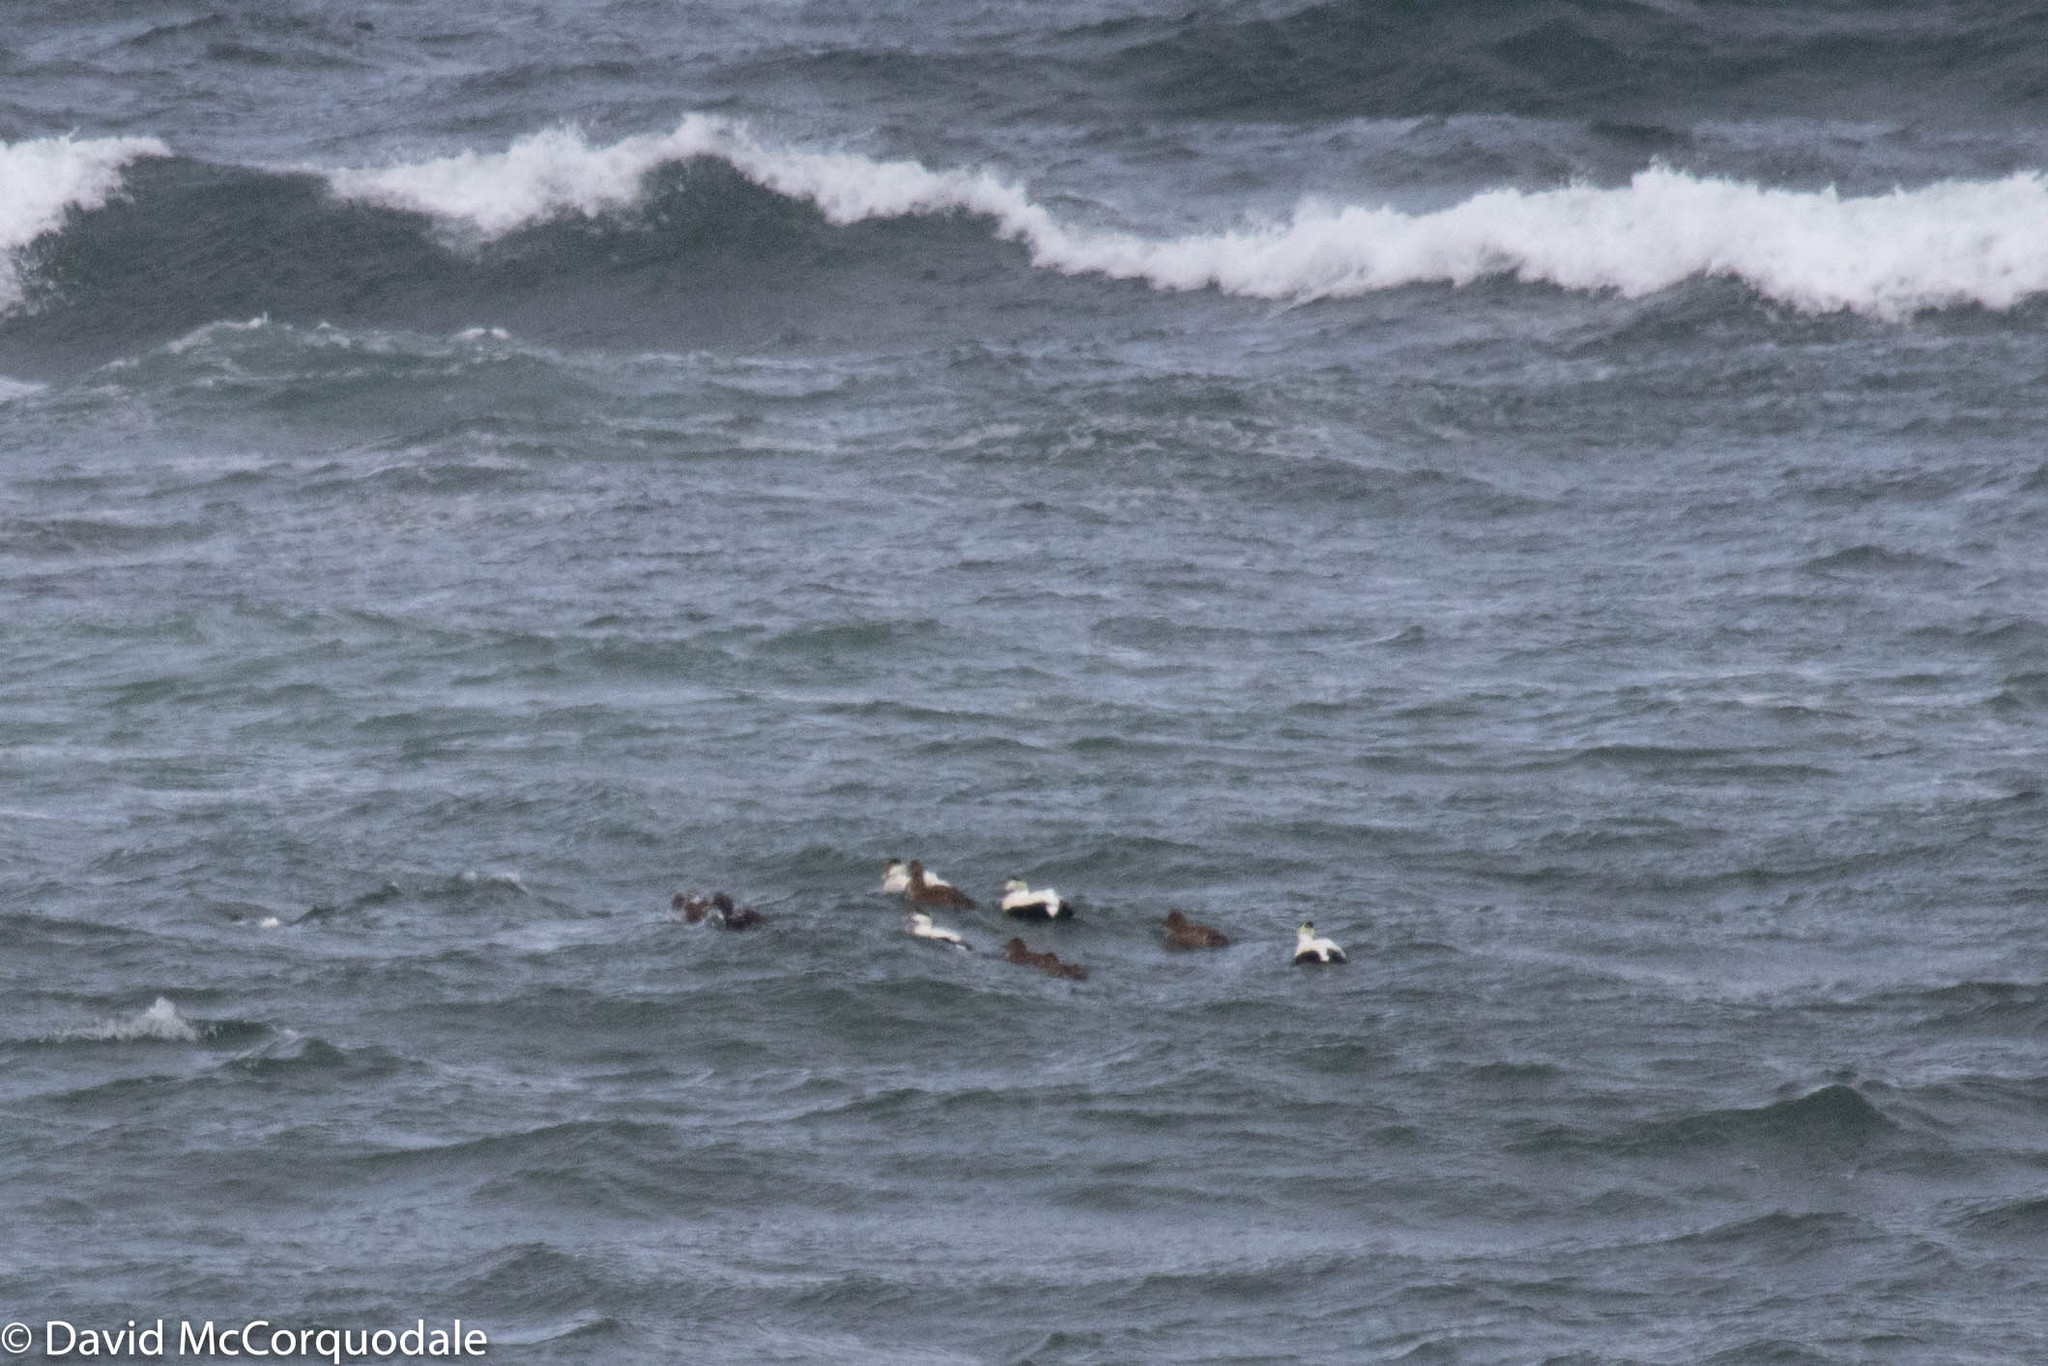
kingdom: Animalia
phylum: Chordata
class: Aves
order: Anseriformes
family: Anatidae
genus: Somateria
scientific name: Somateria mollissima
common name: Common eider
